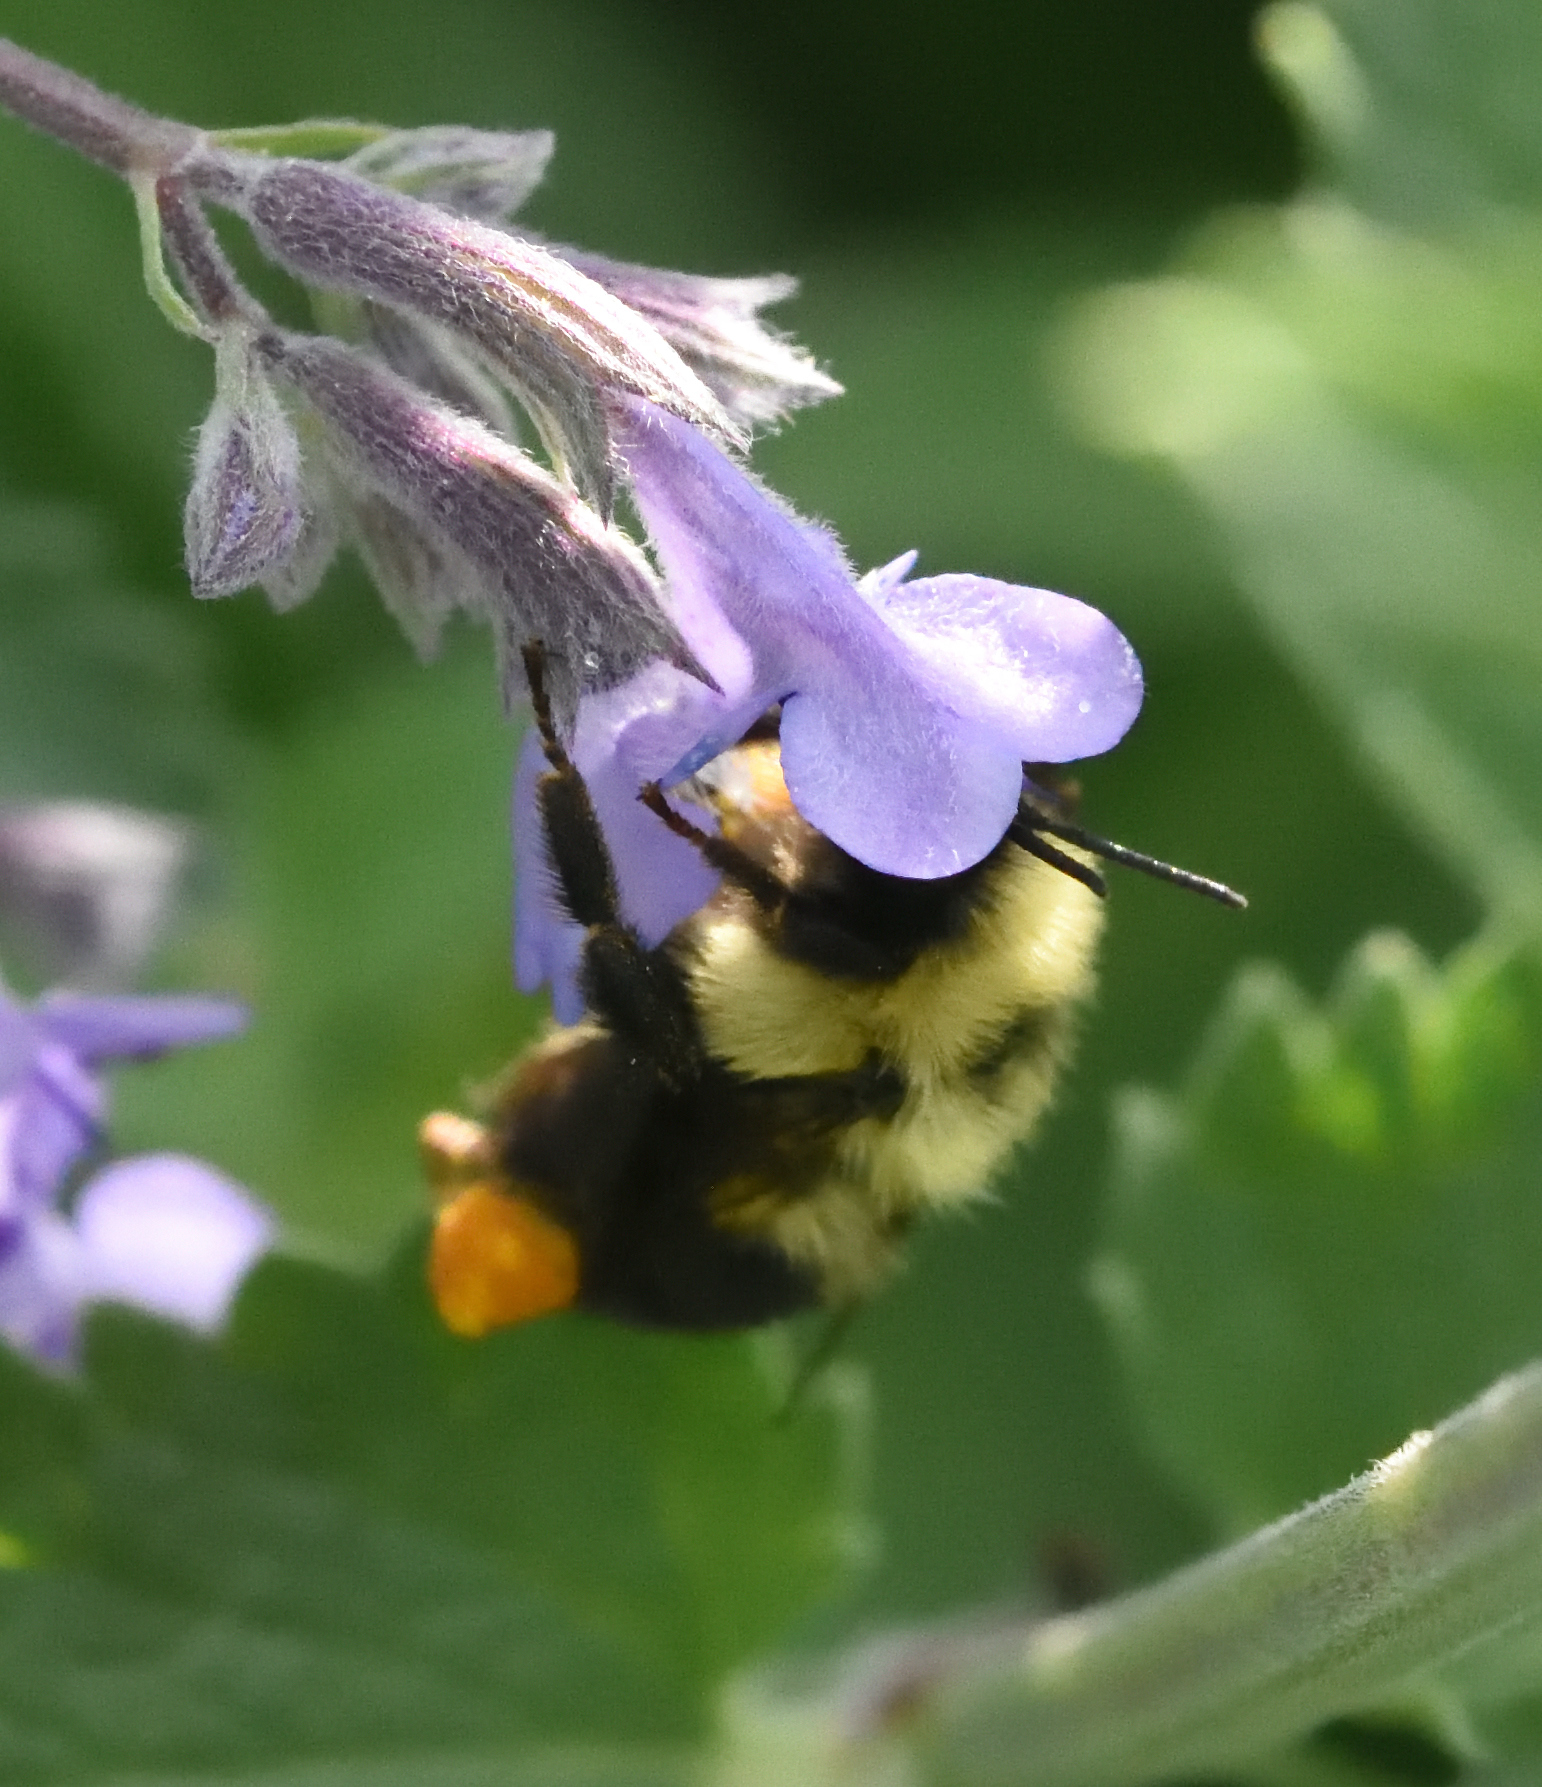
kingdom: Animalia
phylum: Arthropoda
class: Insecta
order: Hymenoptera
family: Apidae
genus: Bombus
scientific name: Bombus bimaculatus
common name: Two-spotted bumble bee
